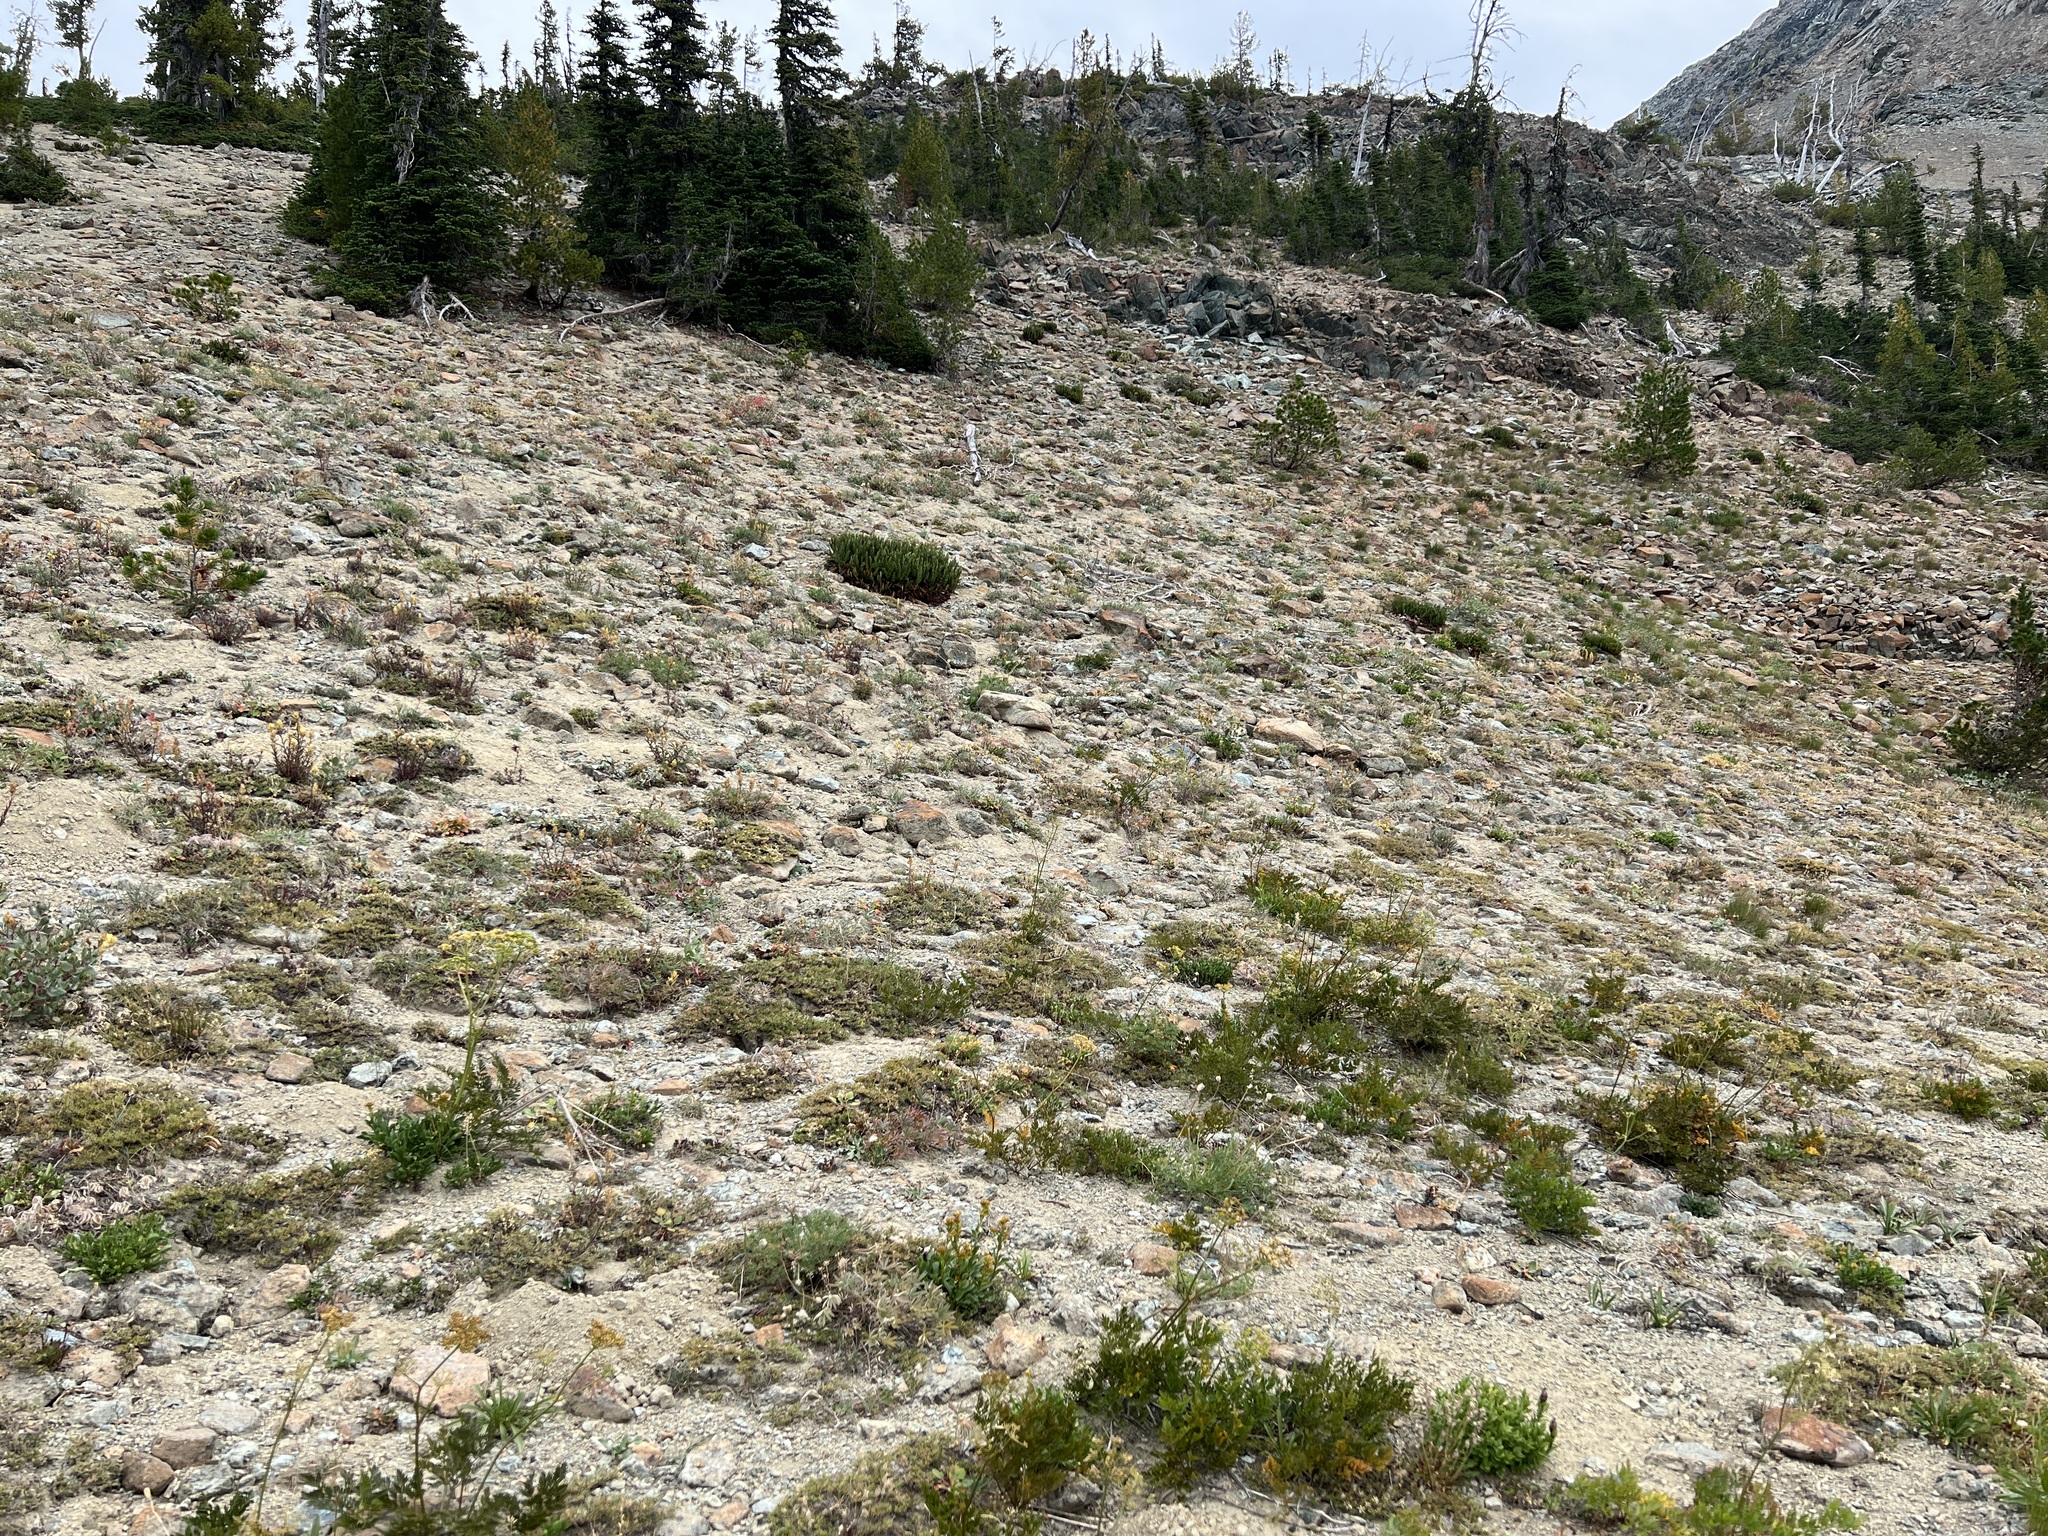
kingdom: Plantae
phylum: Tracheophyta
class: Polypodiopsida
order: Polypodiales
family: Dryopteridaceae
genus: Polystichum
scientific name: Polystichum lemmonii
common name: Lemmon's holly fern
